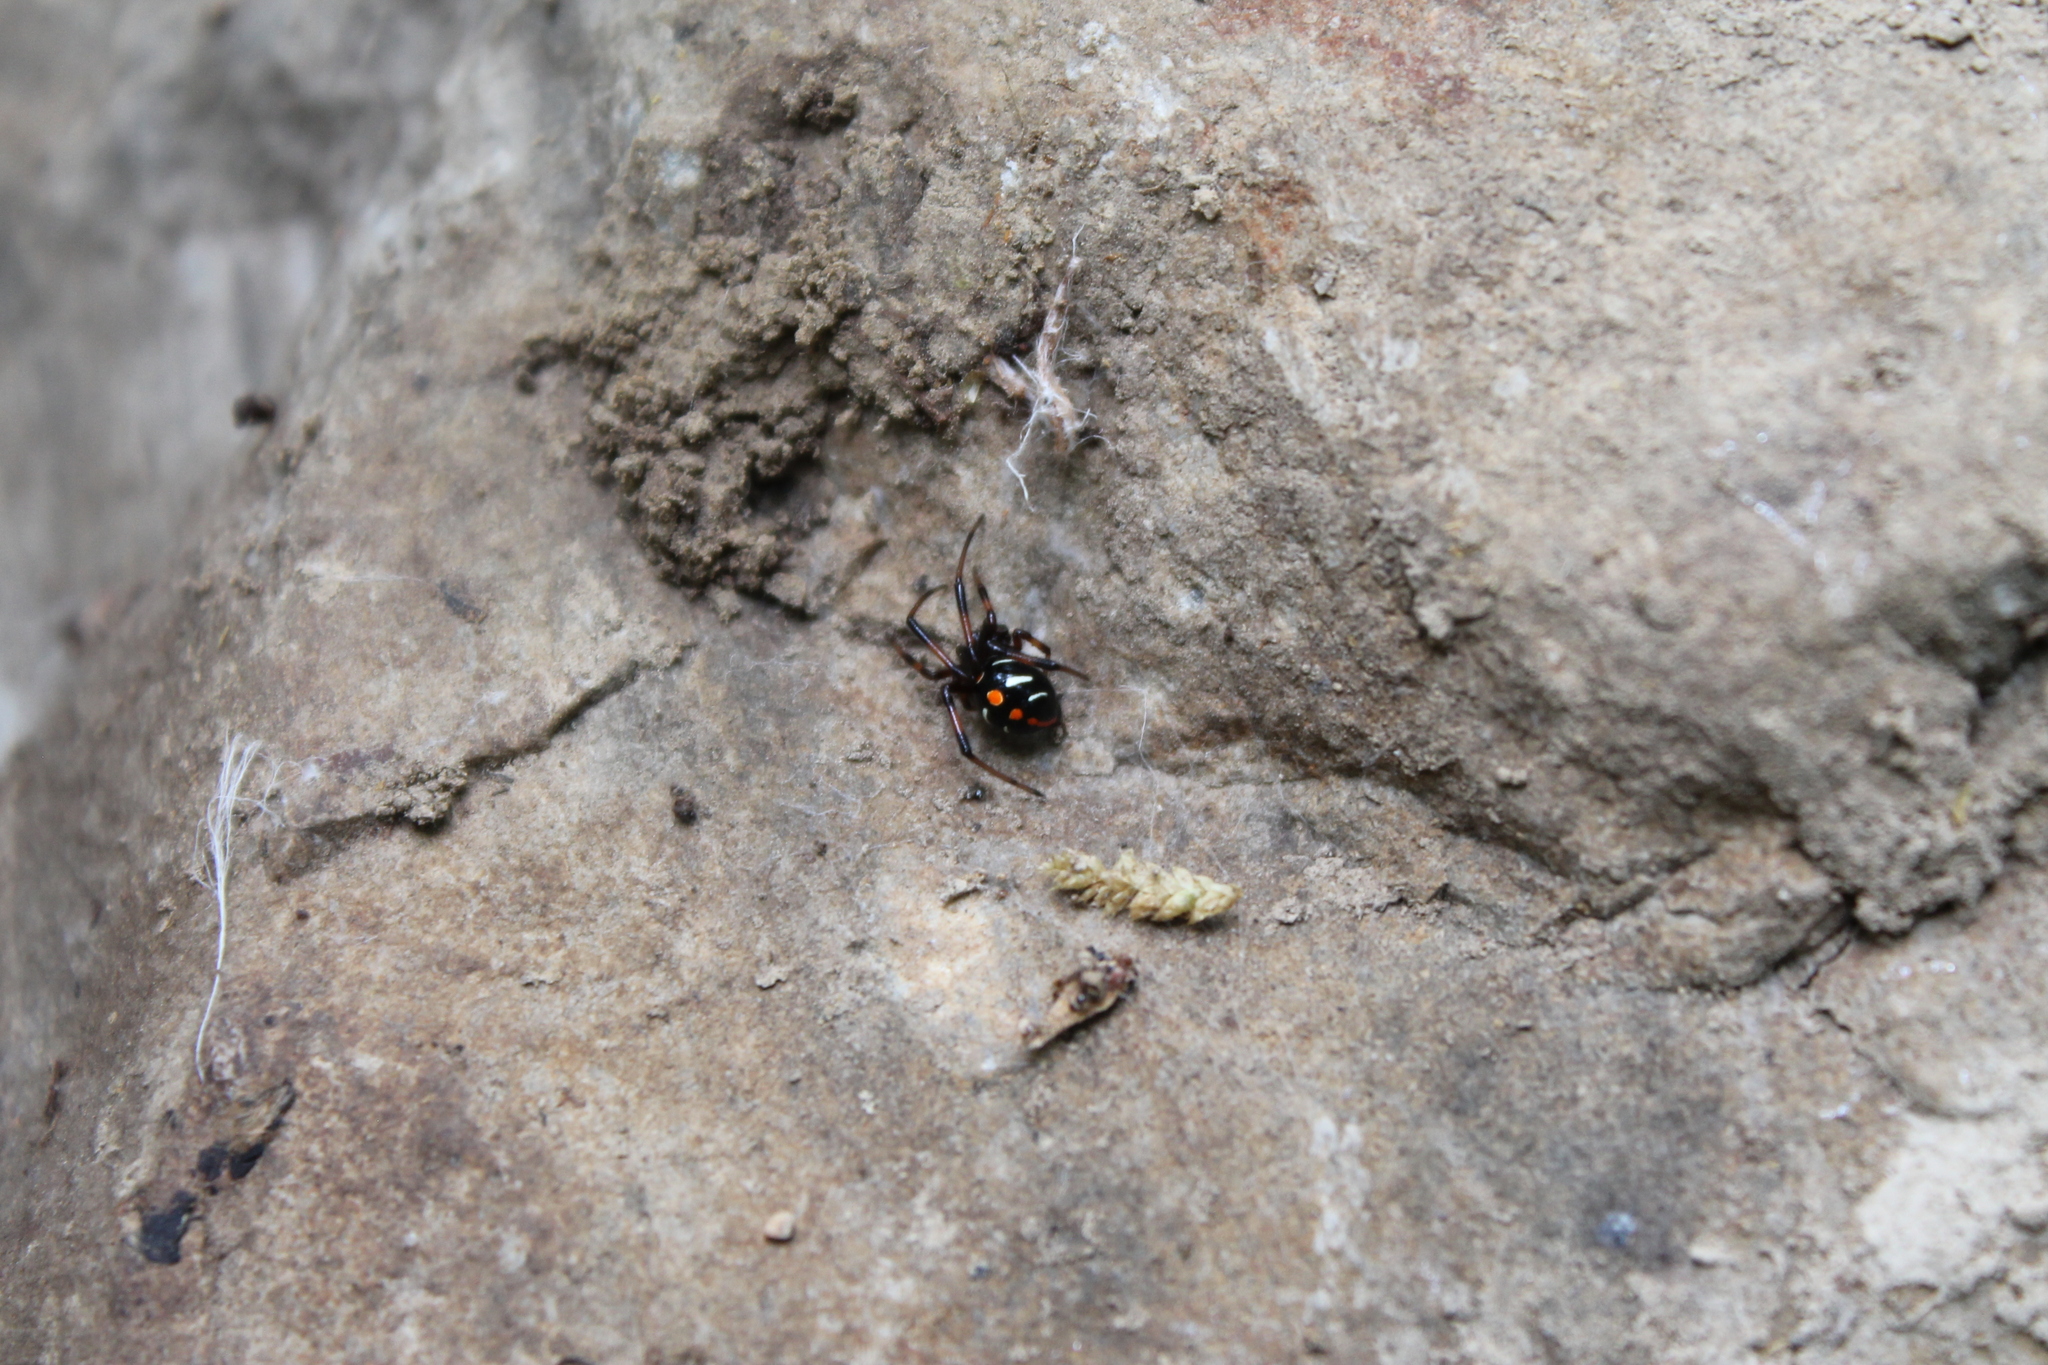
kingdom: Animalia
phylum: Arthropoda
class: Arachnida
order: Araneae
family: Theridiidae
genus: Latrodectus
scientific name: Latrodectus variolus
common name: Northern black widow
